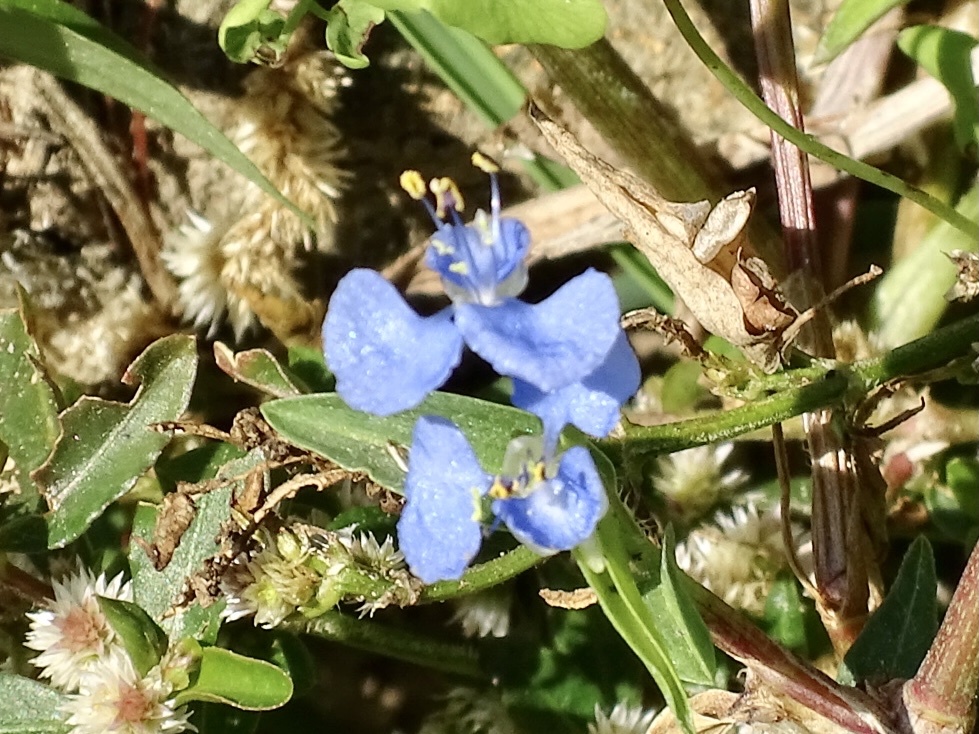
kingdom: Plantae
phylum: Tracheophyta
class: Liliopsida
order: Commelinales
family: Commelinaceae
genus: Commelina
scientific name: Commelina diffusa
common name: Climbing dayflower
